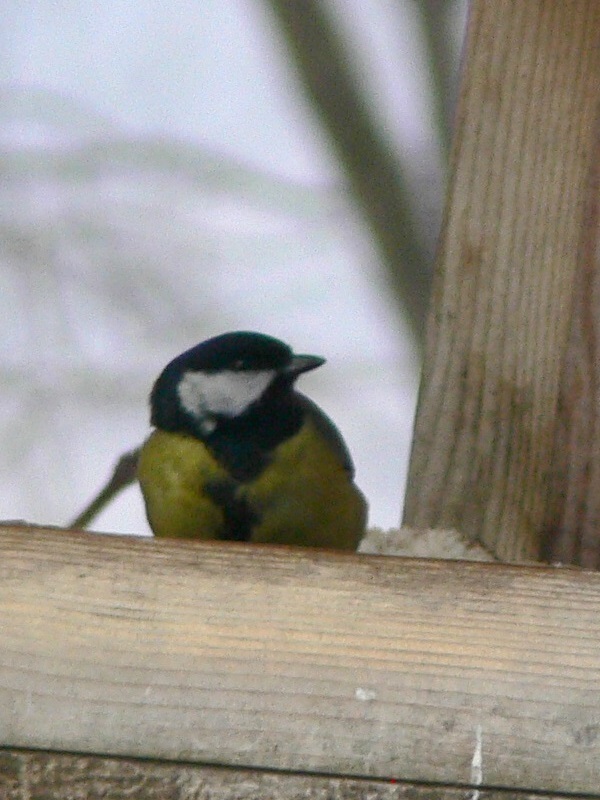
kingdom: Animalia
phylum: Chordata
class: Aves
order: Passeriformes
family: Paridae
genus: Parus
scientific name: Parus major
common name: Great tit
